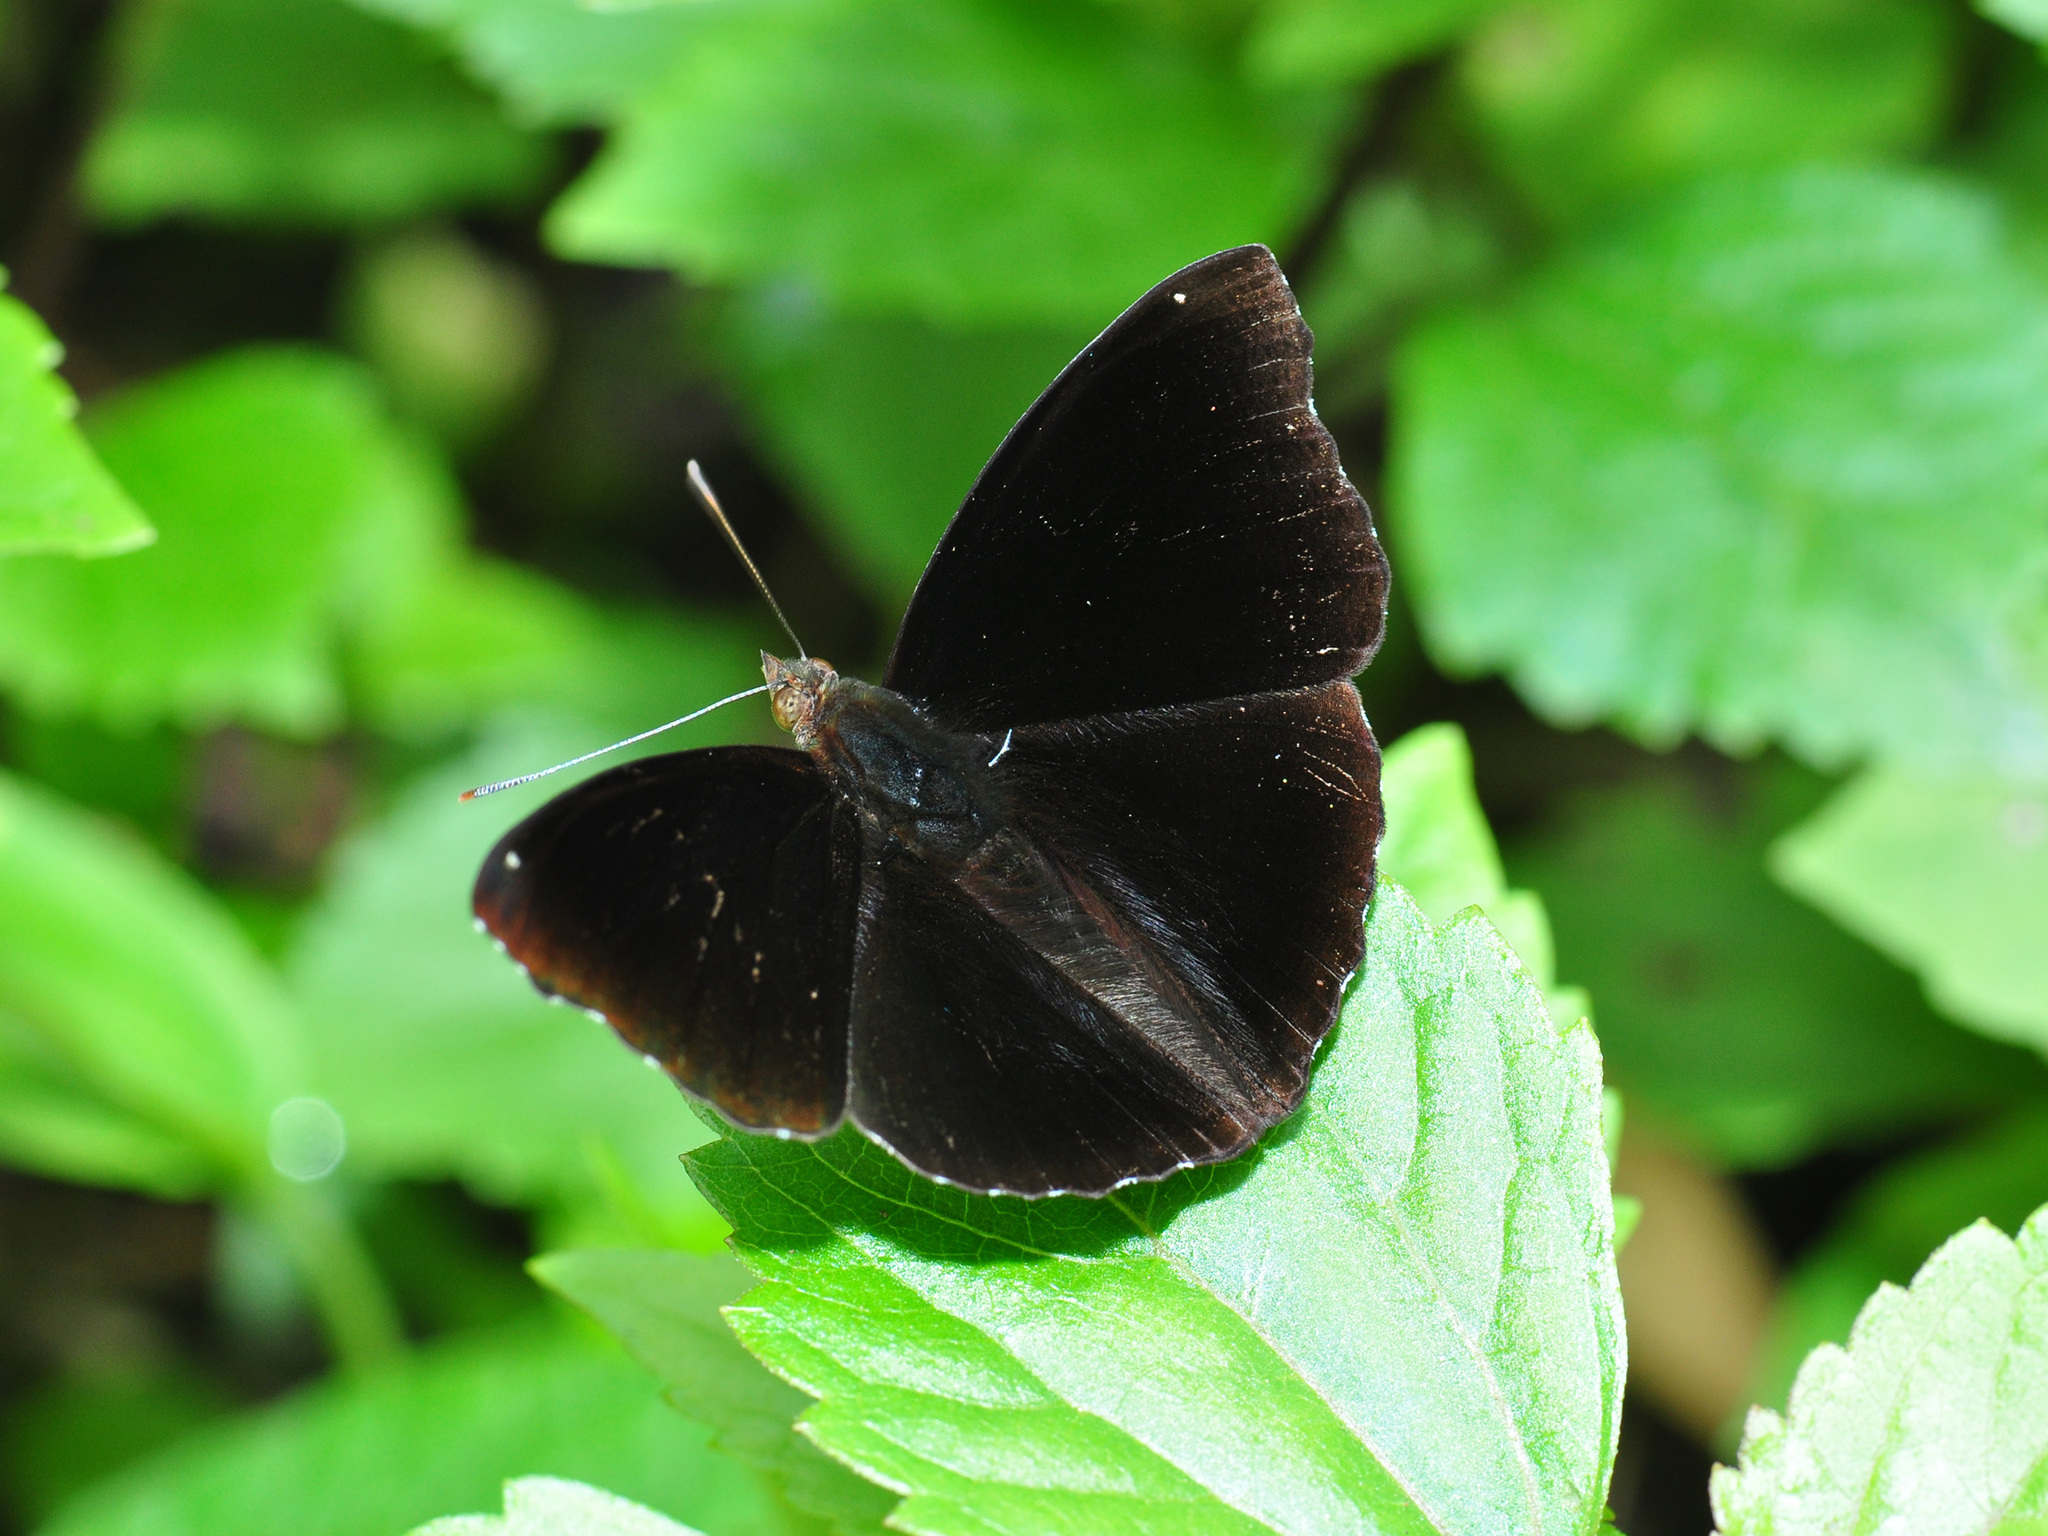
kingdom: Animalia
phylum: Arthropoda
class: Insecta
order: Lepidoptera
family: Nymphalidae
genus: Apatura
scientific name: Apatura Rohana spec
